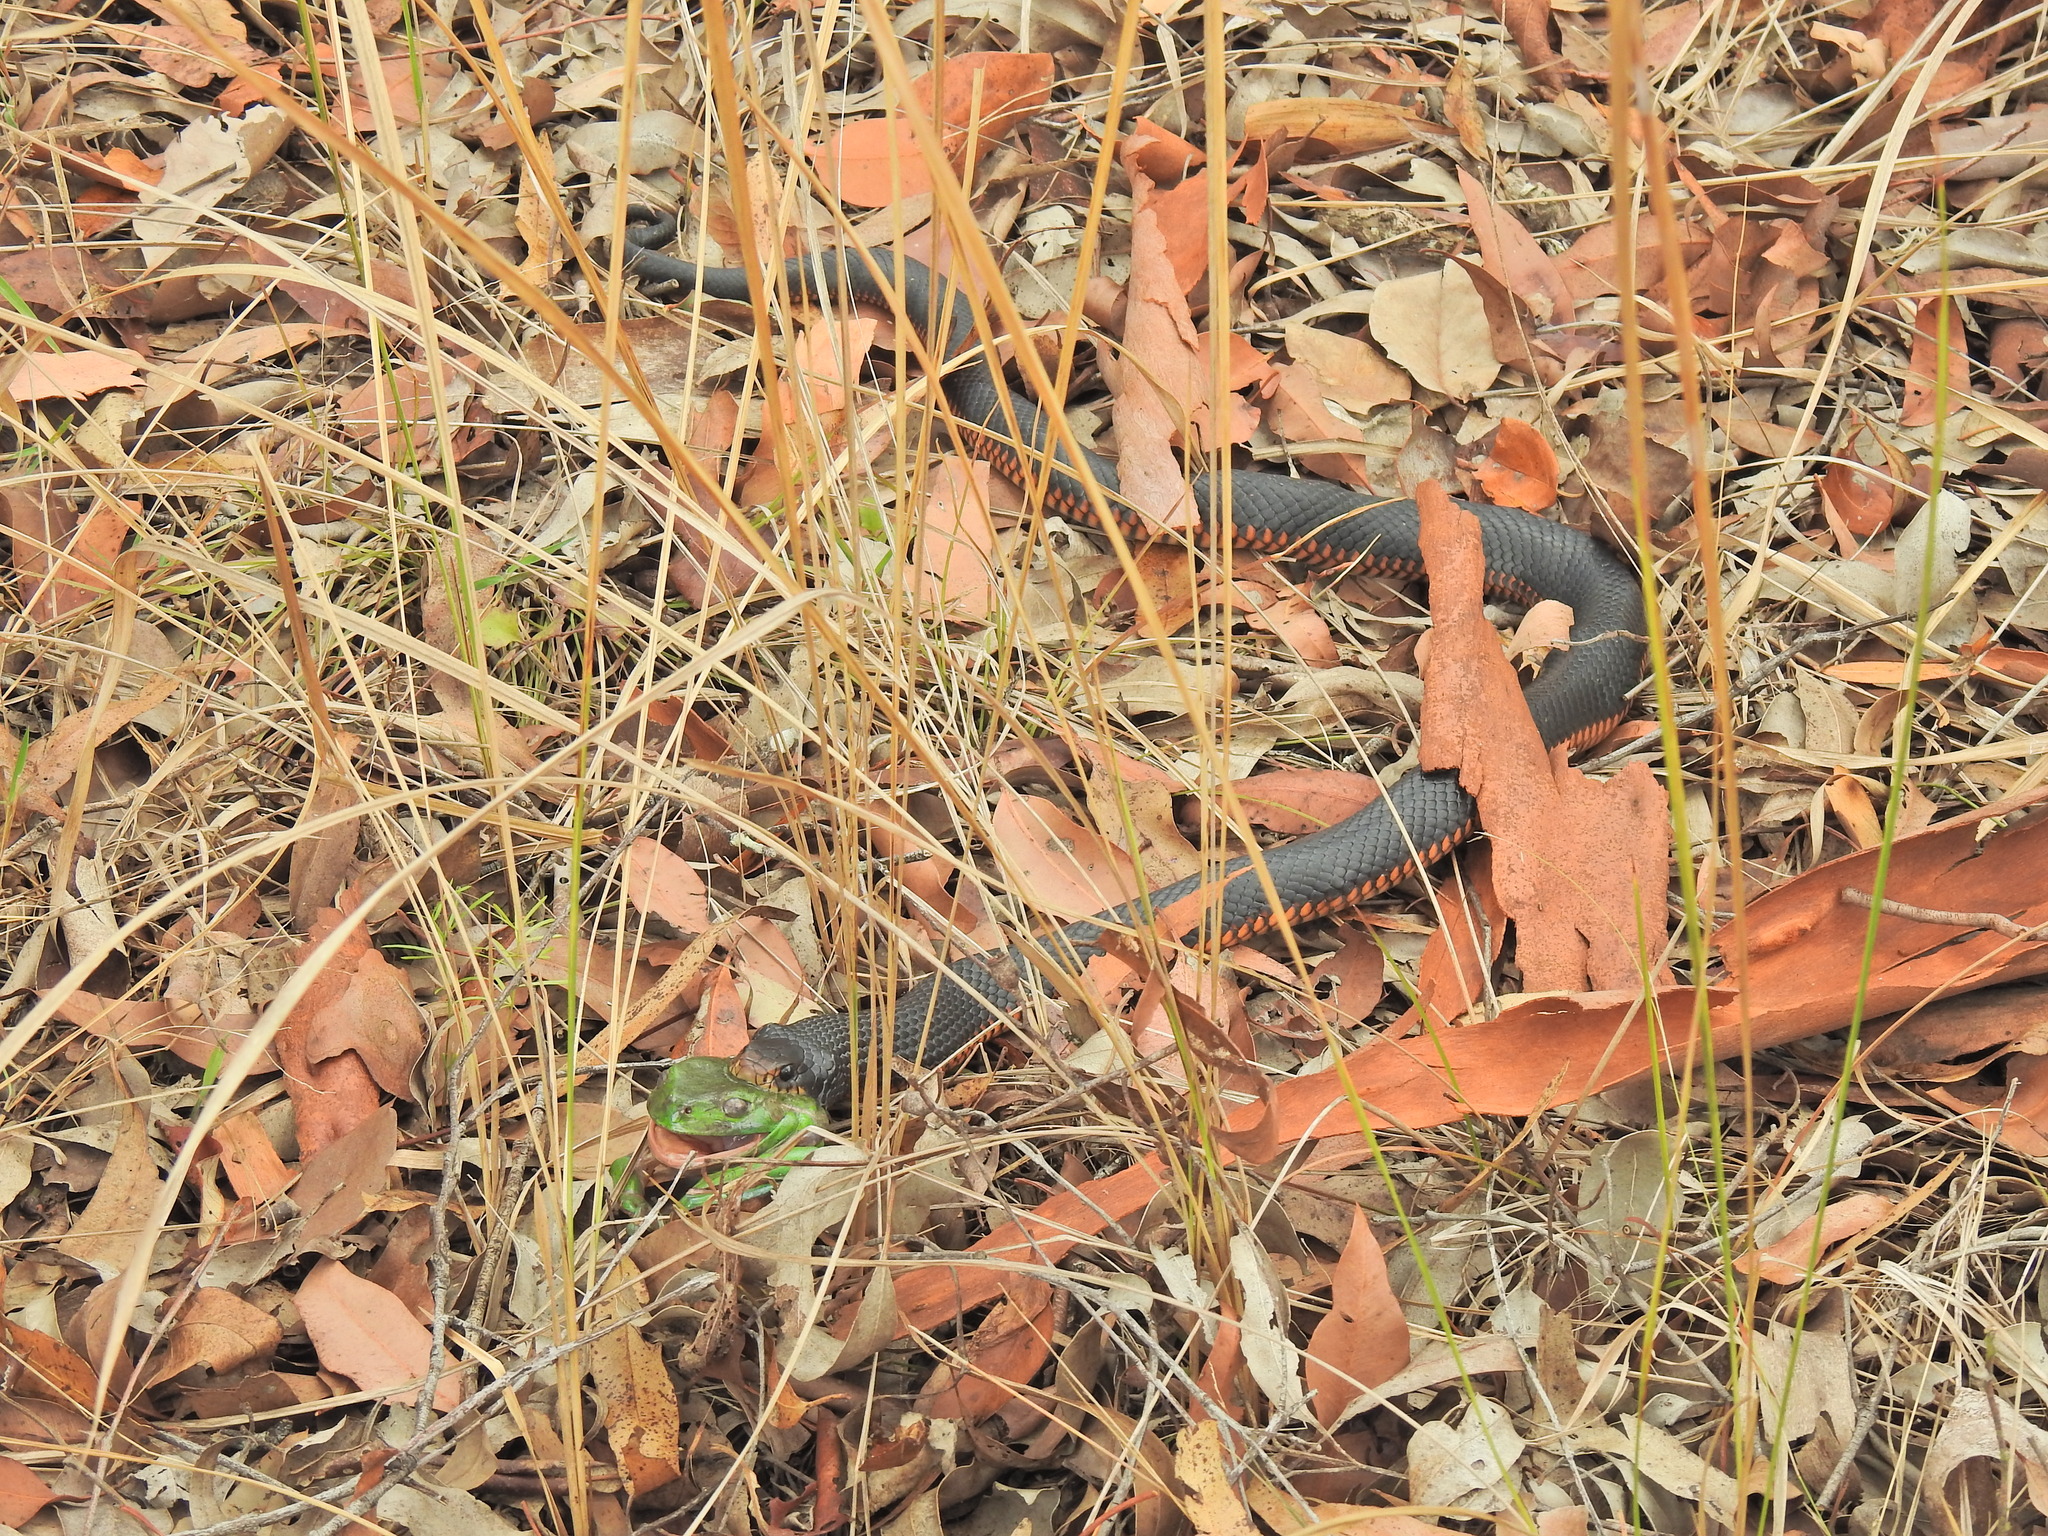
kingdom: Animalia
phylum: Chordata
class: Squamata
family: Elapidae
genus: Pseudechis
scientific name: Pseudechis porphyriacus
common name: Australian black snake
